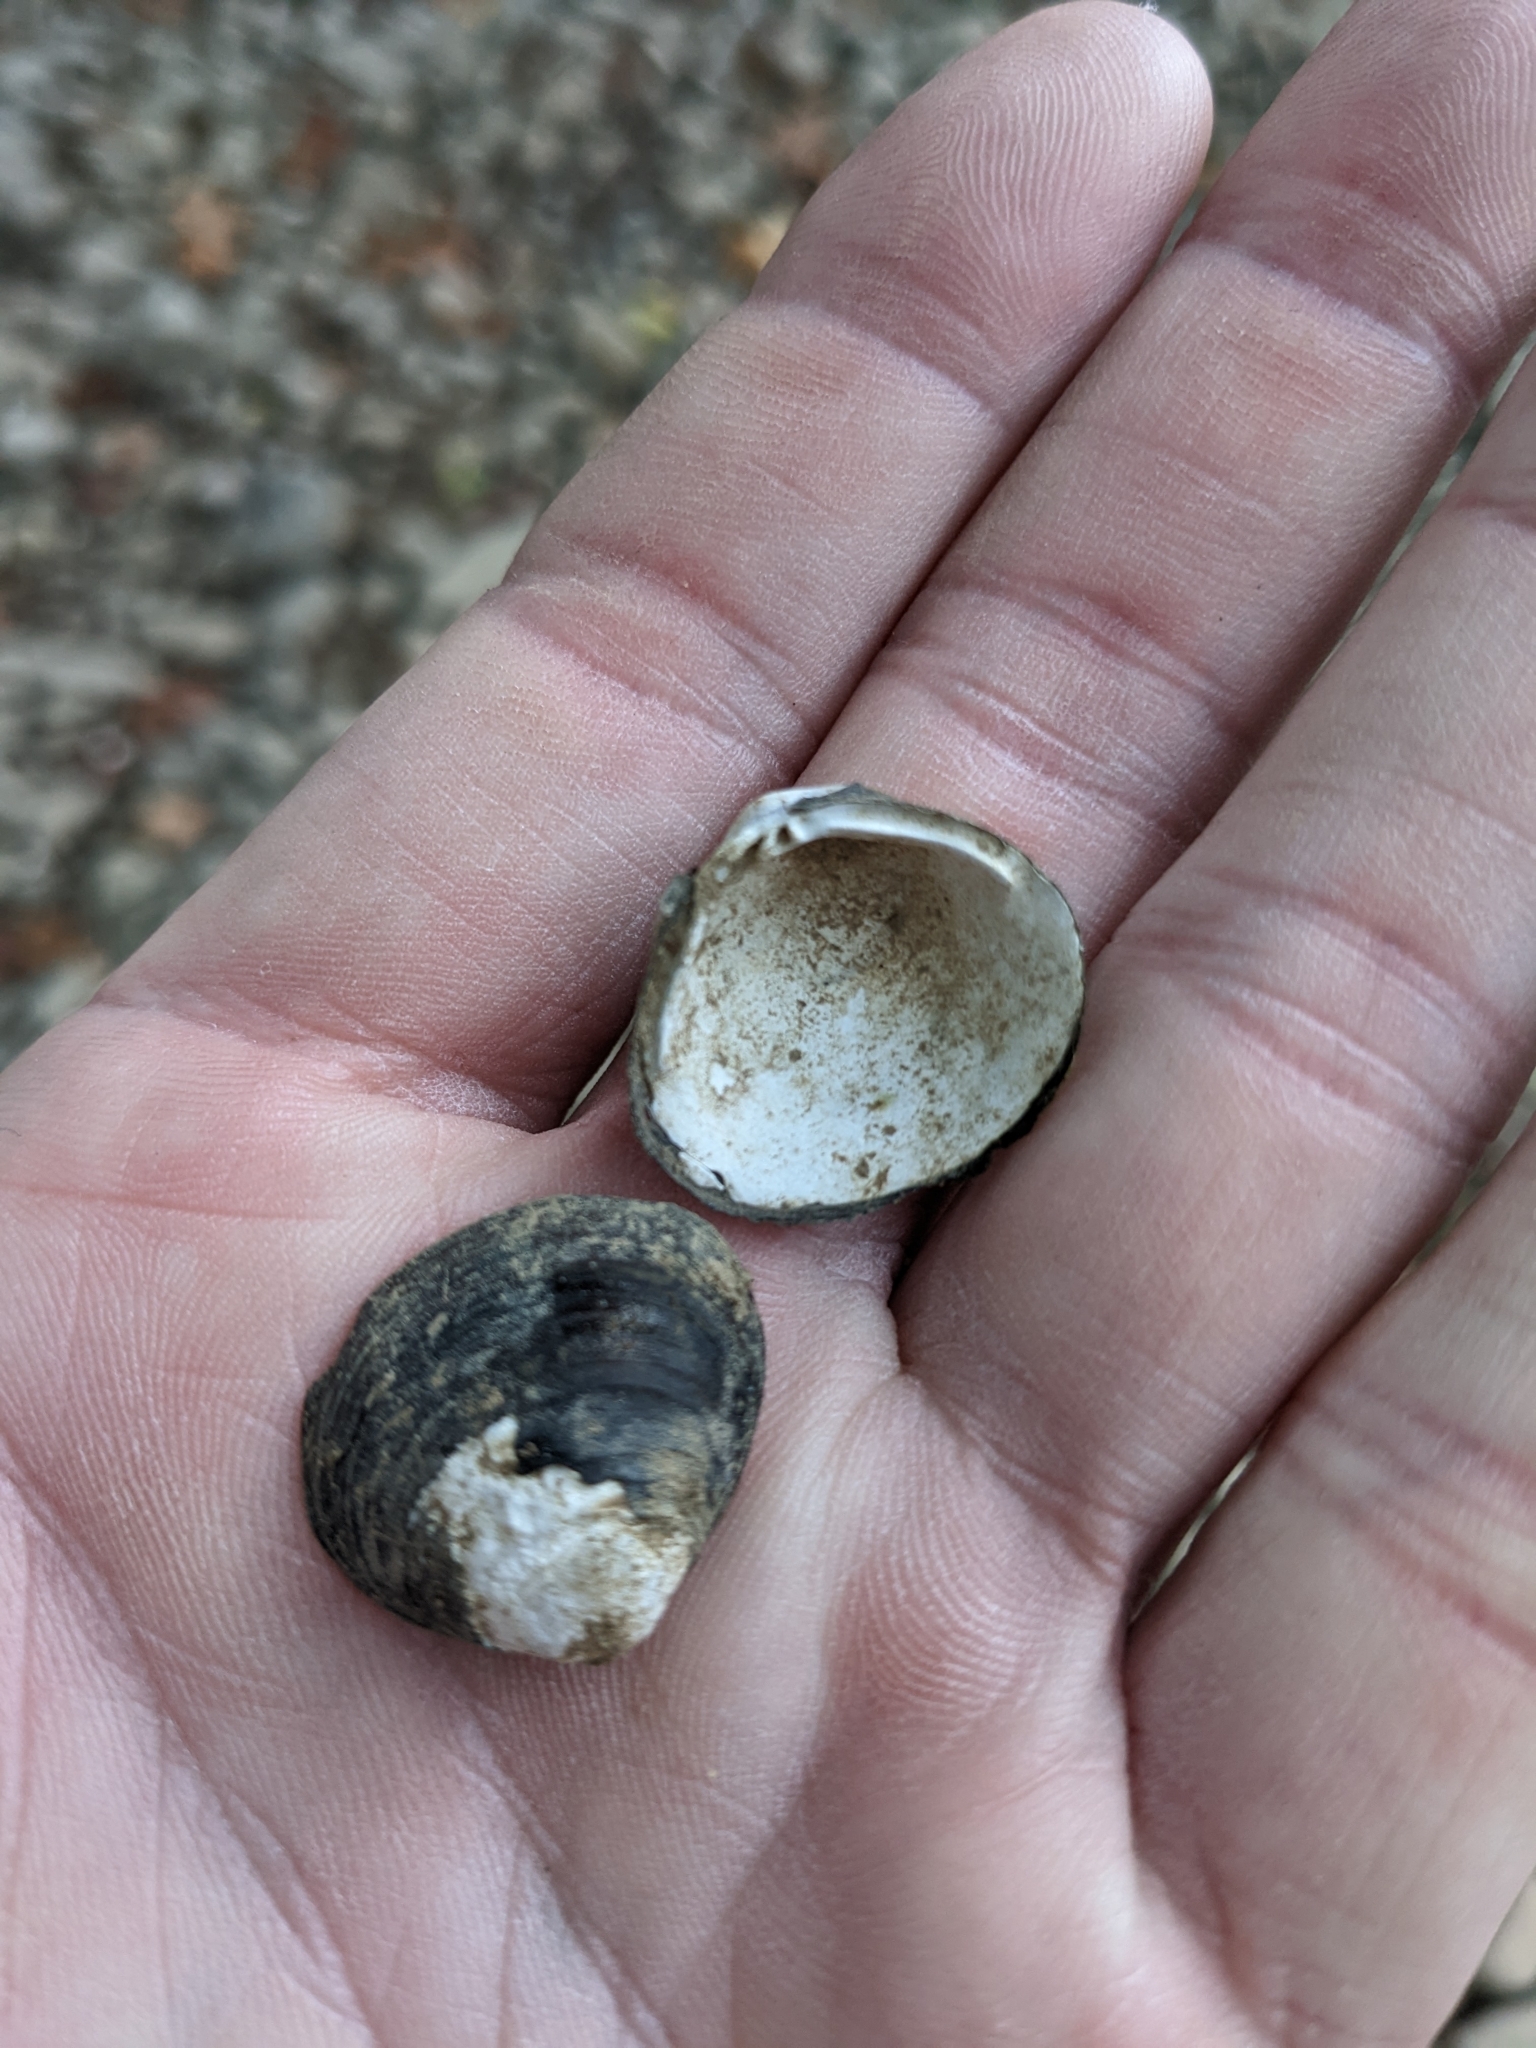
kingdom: Animalia
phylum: Mollusca
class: Bivalvia
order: Venerida
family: Cyrenidae
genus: Corbicula
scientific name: Corbicula fluminea
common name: Asian clam
